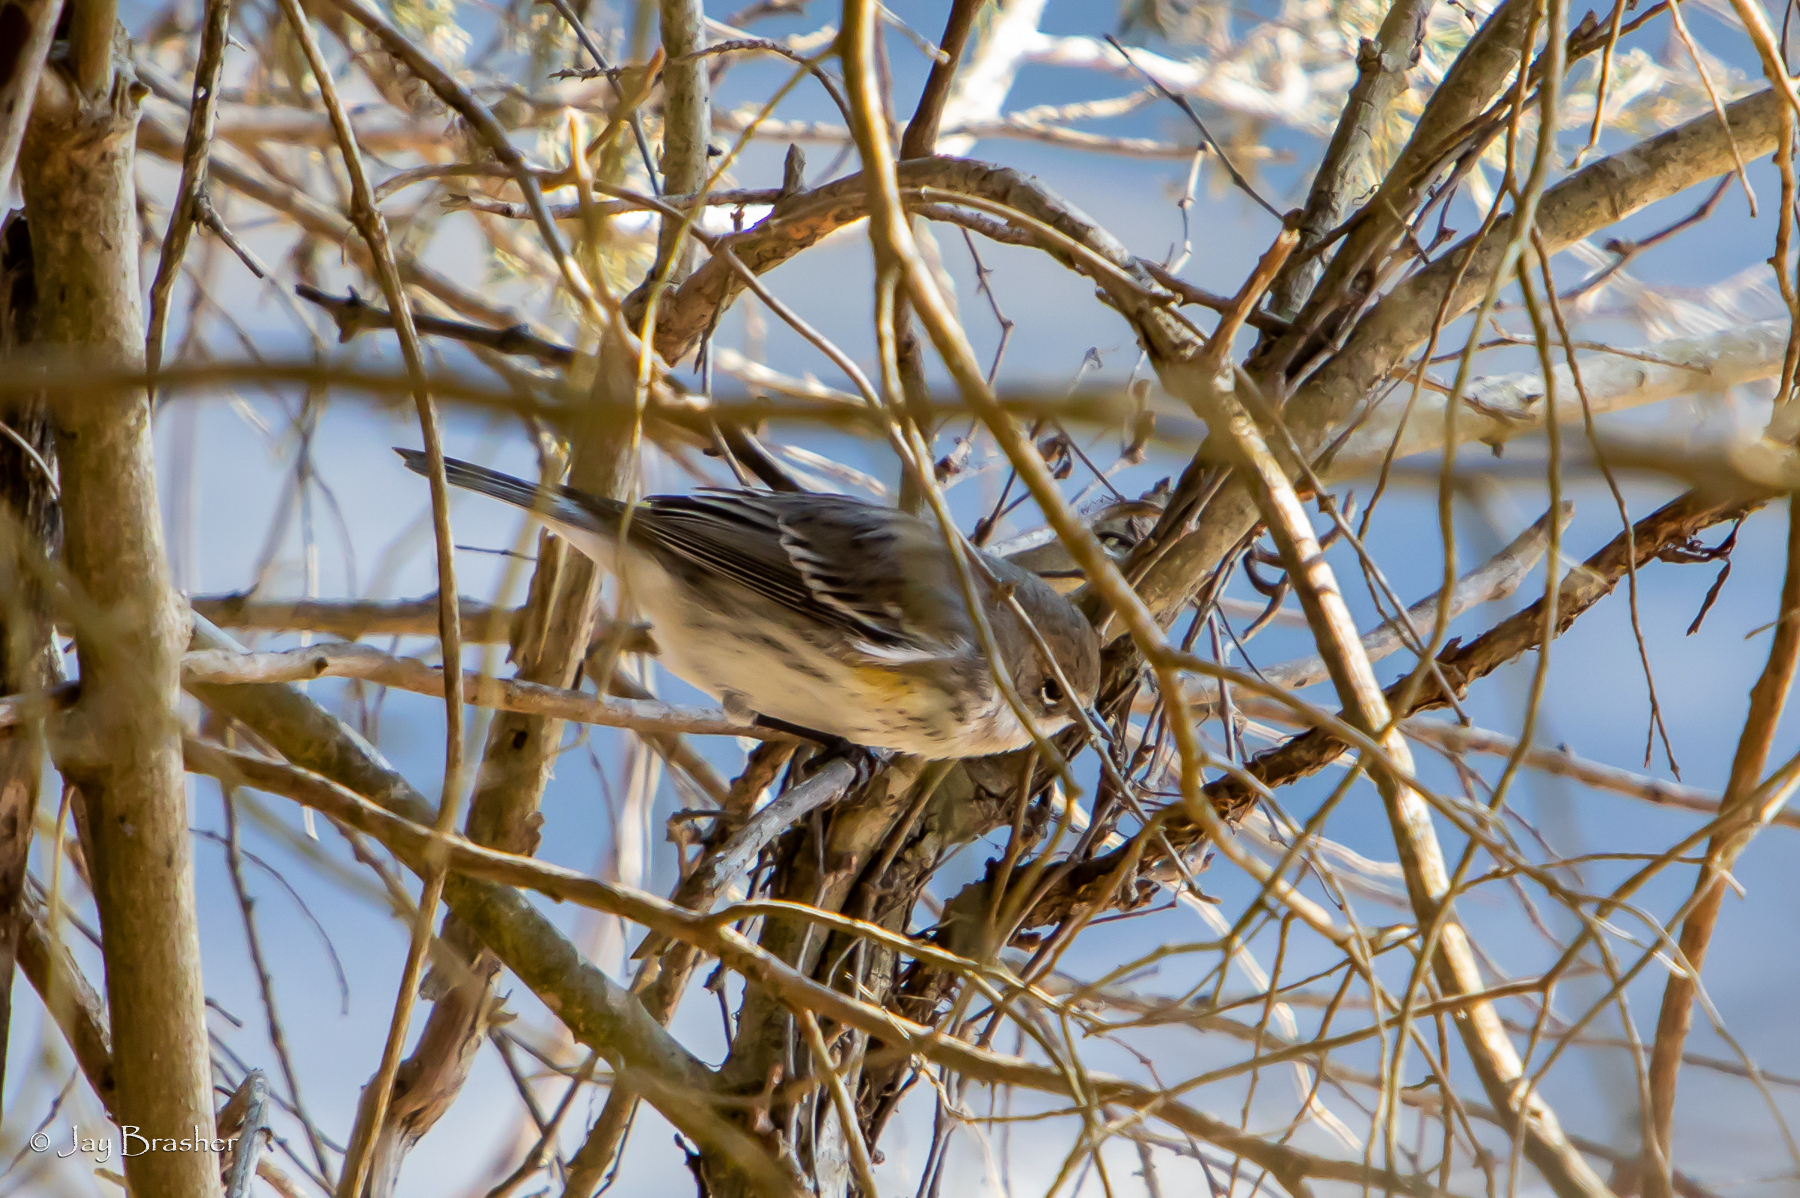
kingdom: Animalia
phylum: Chordata
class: Aves
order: Passeriformes
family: Parulidae
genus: Setophaga
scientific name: Setophaga coronata
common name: Myrtle warbler
